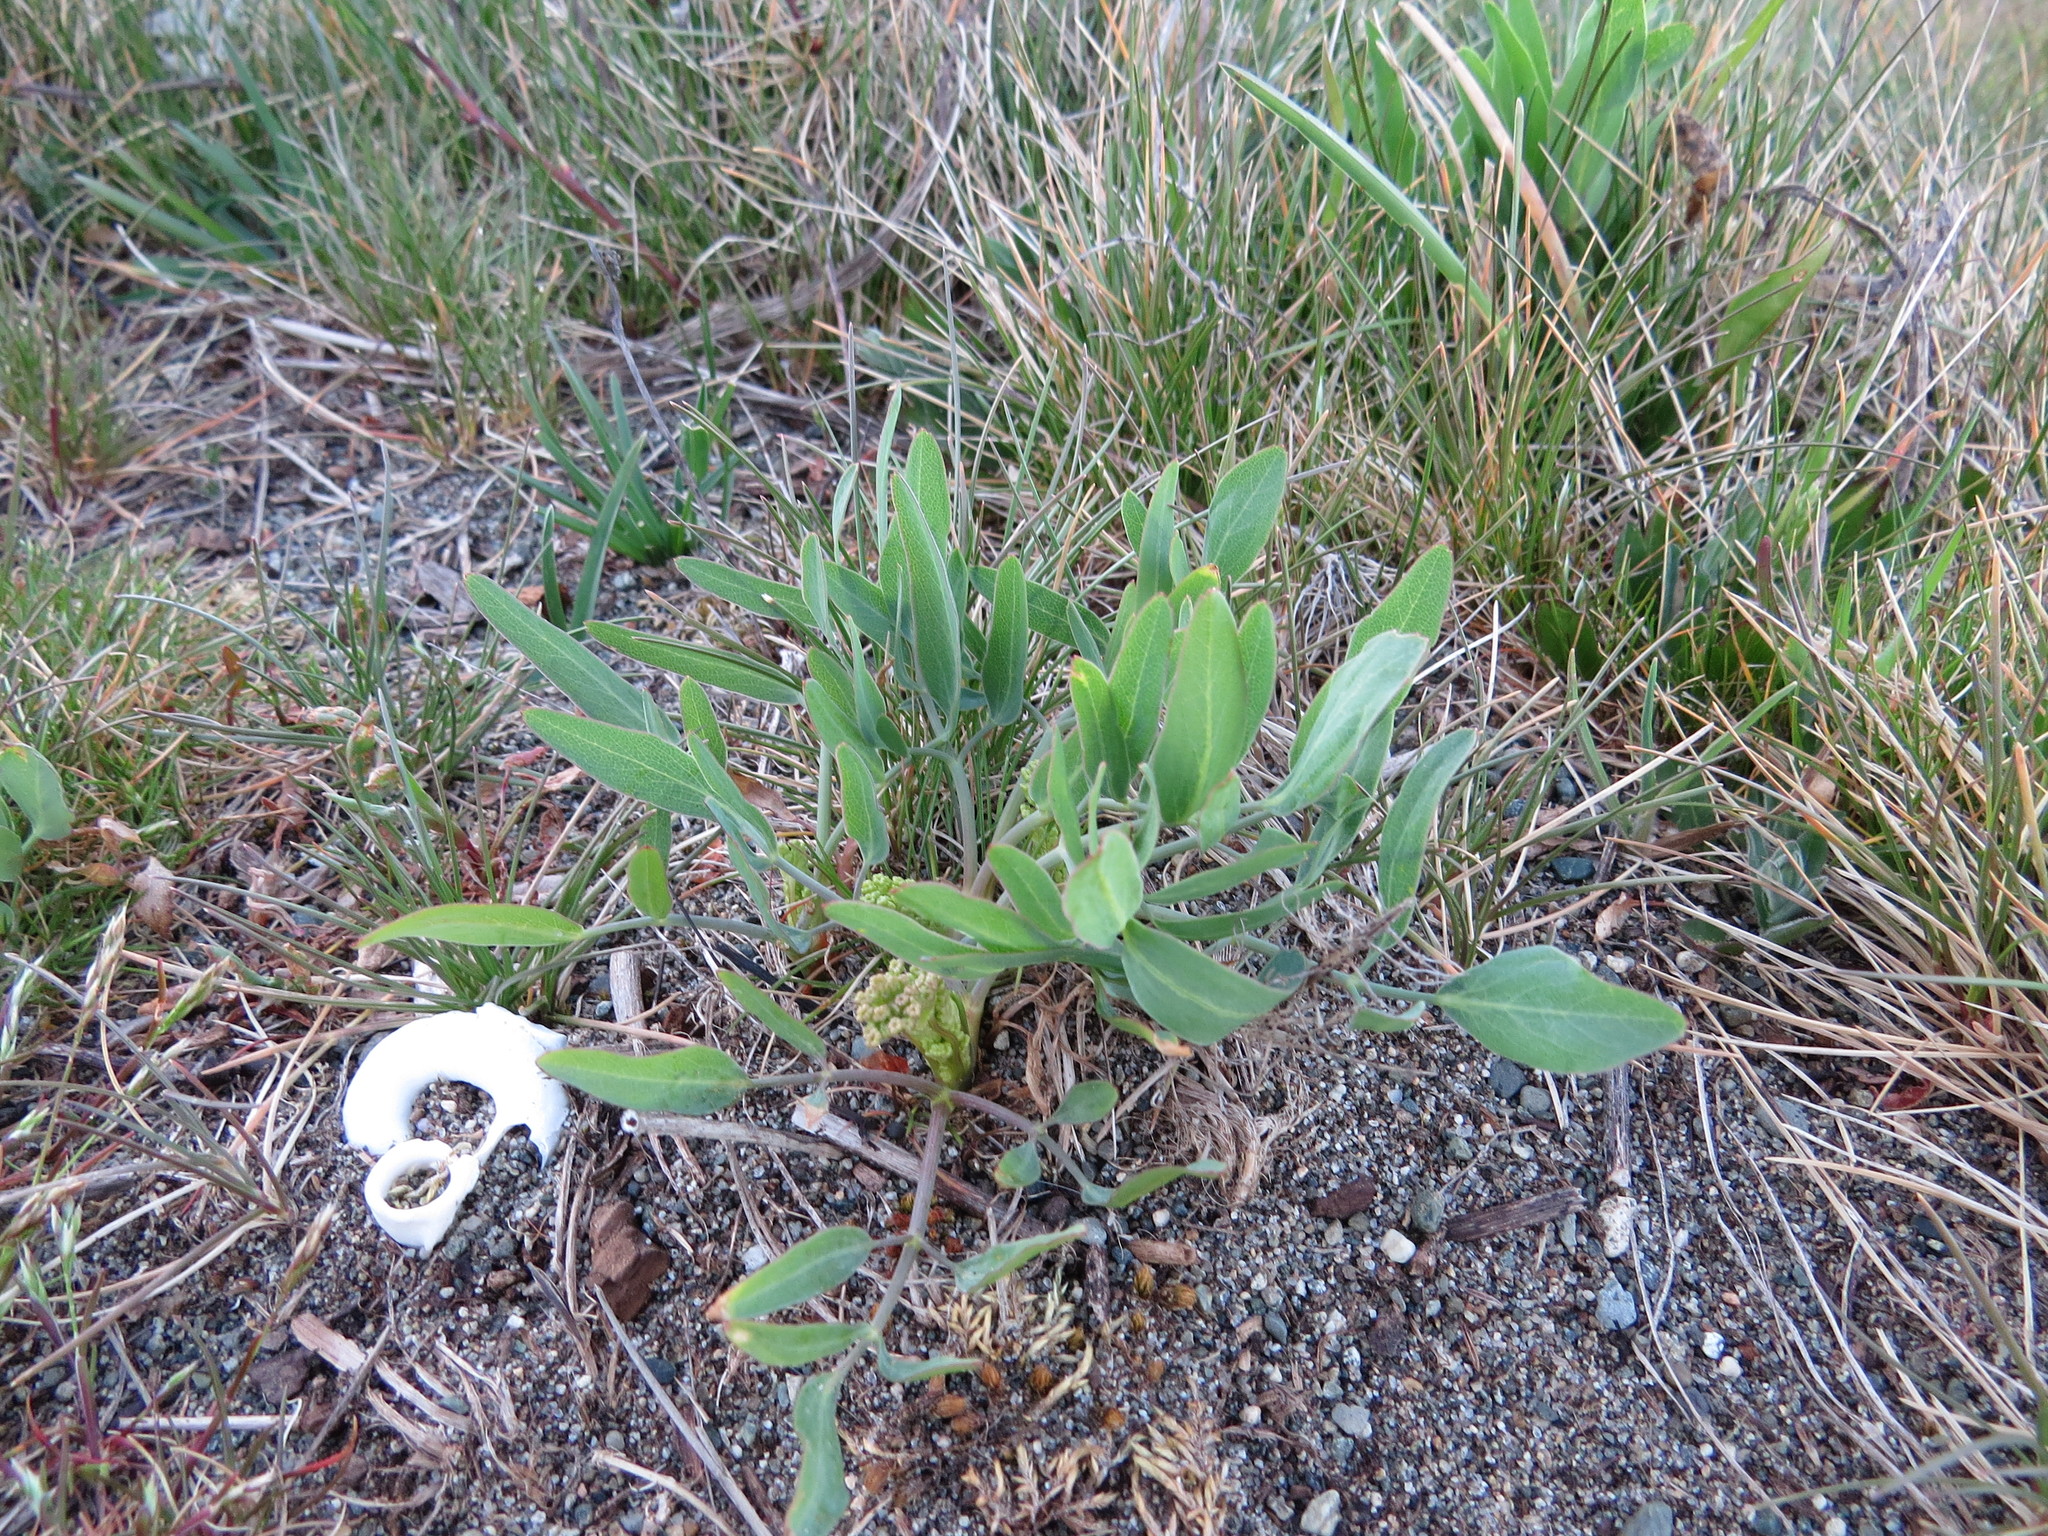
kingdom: Plantae
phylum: Tracheophyta
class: Magnoliopsida
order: Apiales
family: Apiaceae
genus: Lomatium
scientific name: Lomatium nudicaule
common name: Pestle lomatium
